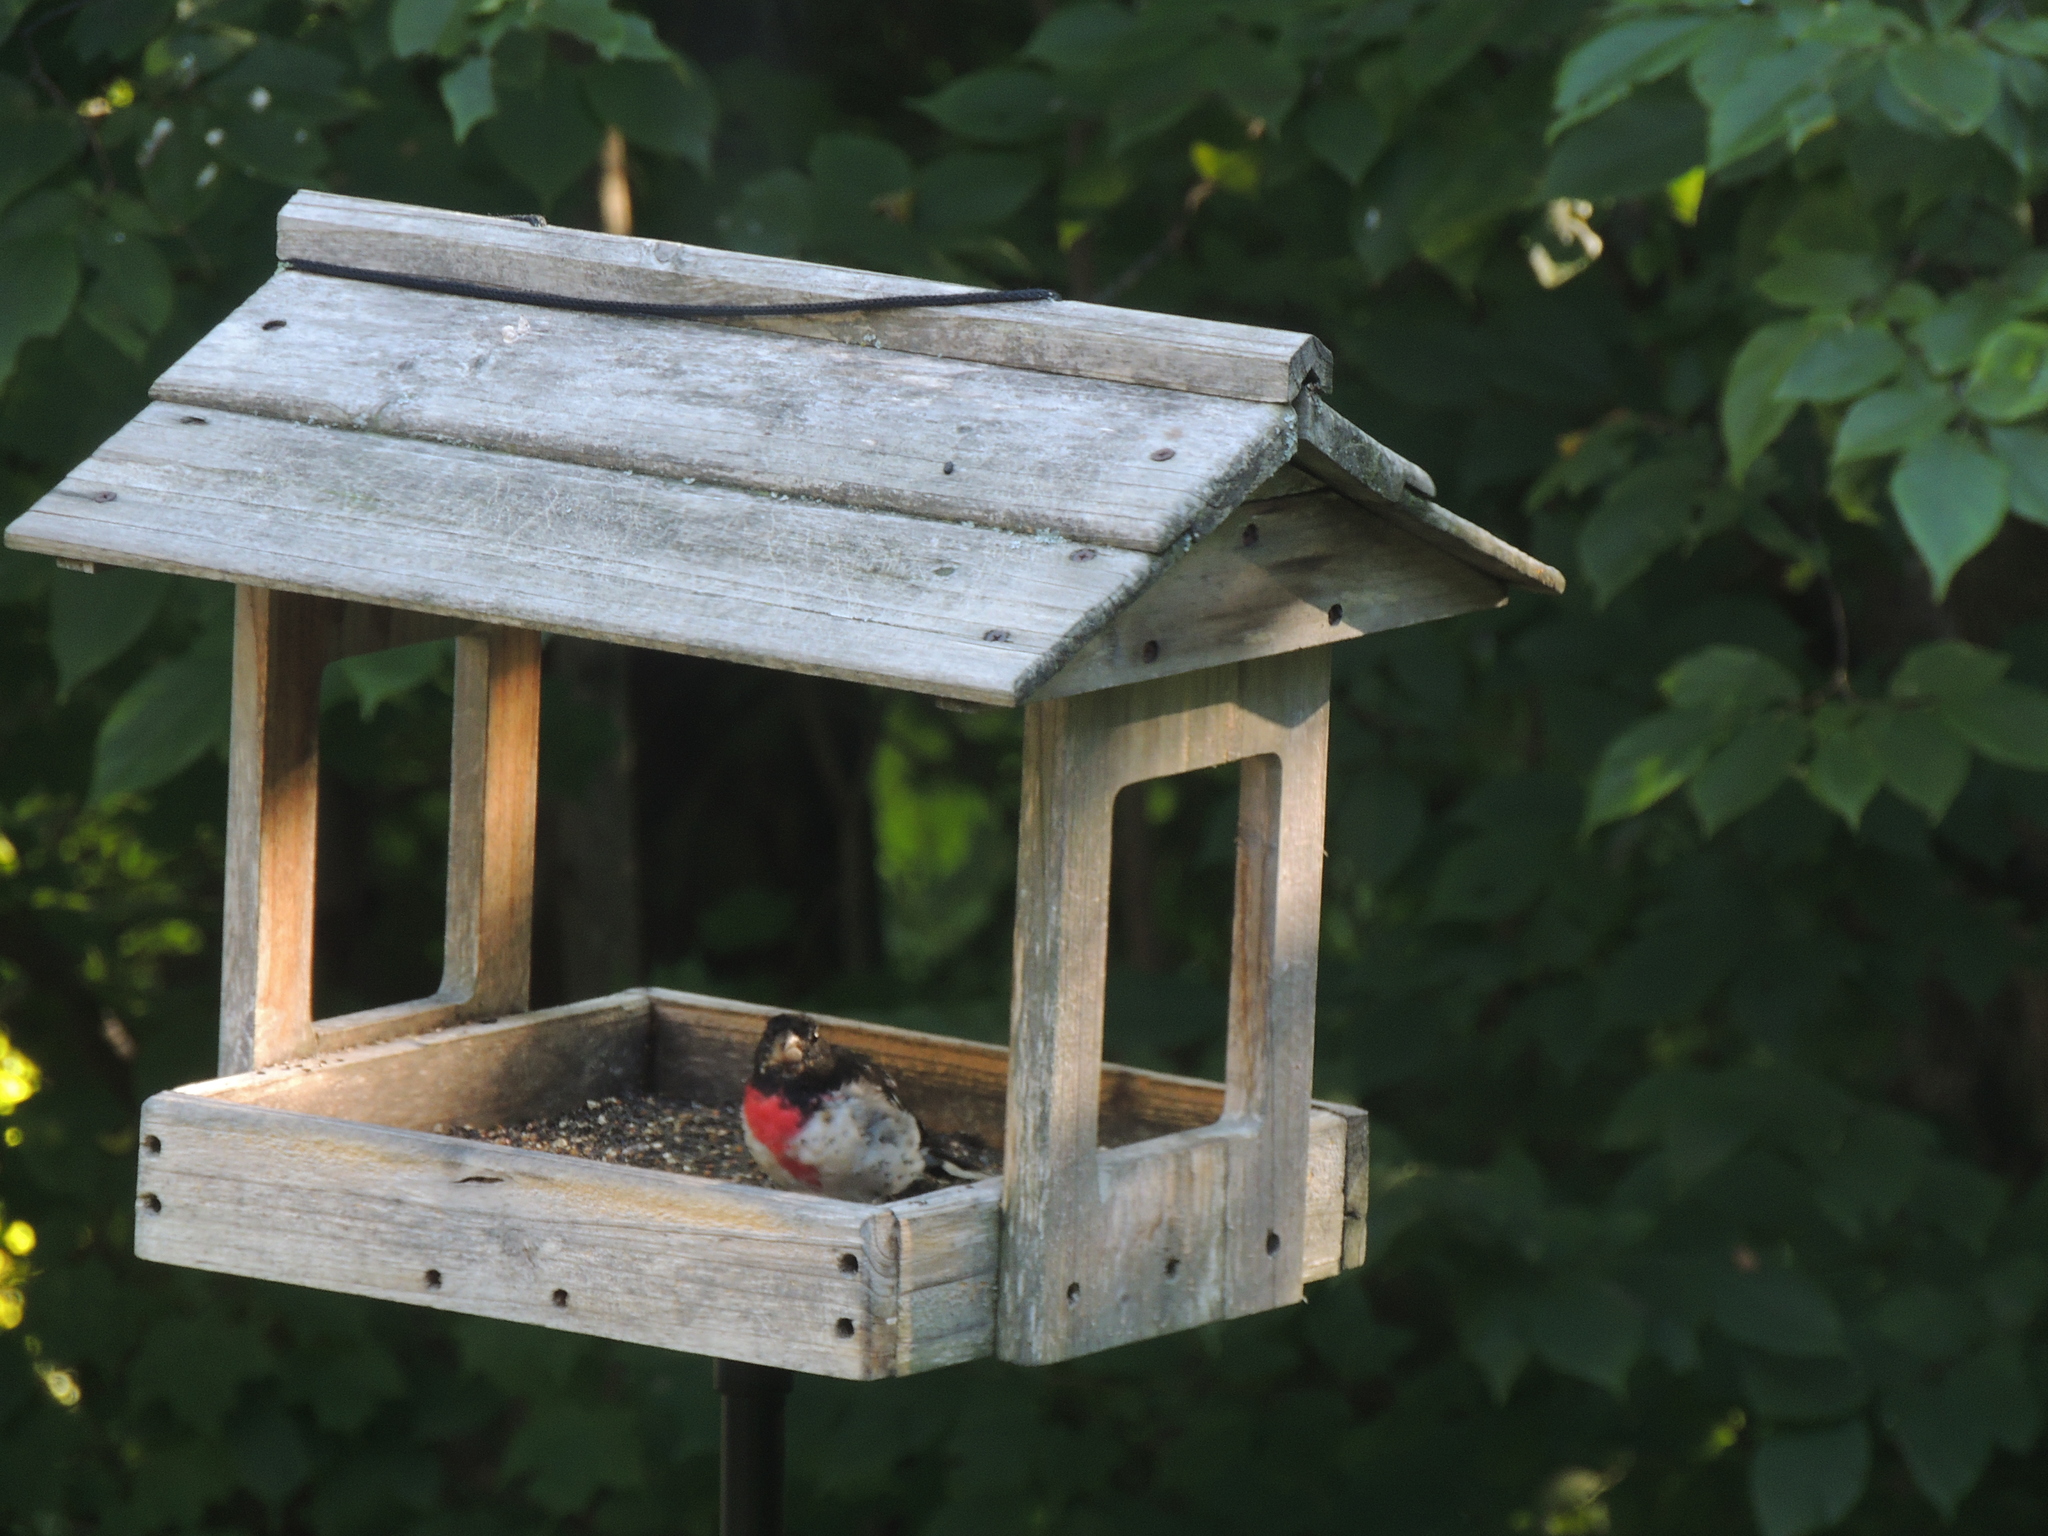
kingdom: Animalia
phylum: Chordata
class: Aves
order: Passeriformes
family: Cardinalidae
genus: Pheucticus
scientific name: Pheucticus ludovicianus
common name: Rose-breasted grosbeak
